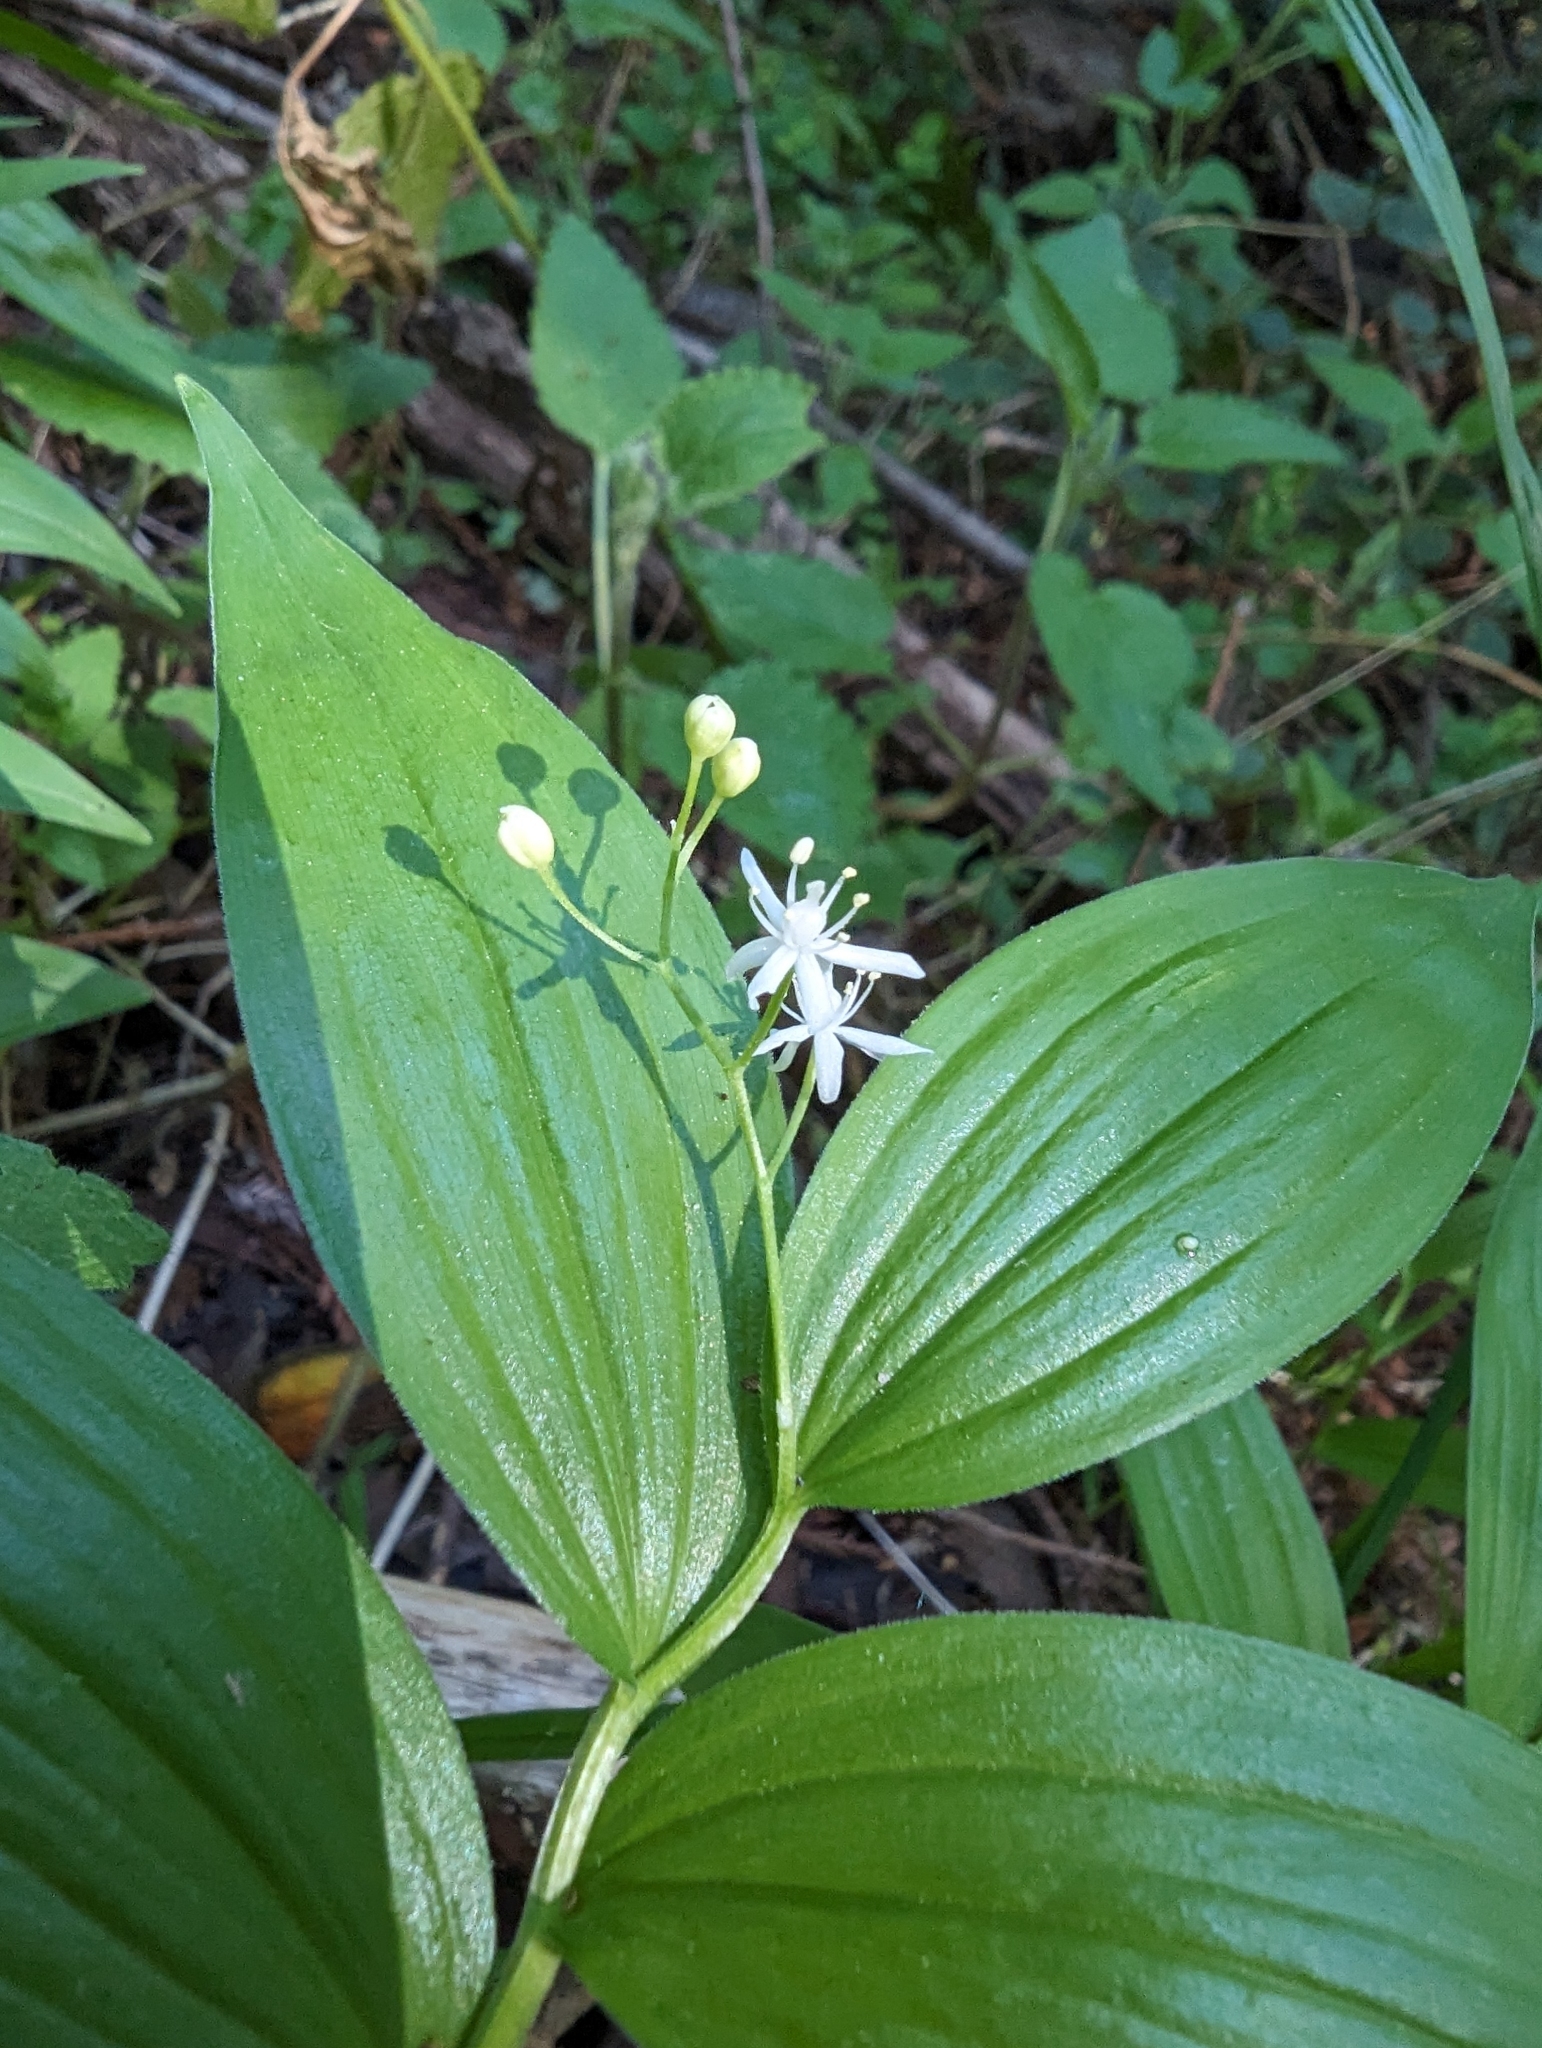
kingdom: Plantae
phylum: Tracheophyta
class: Liliopsida
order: Asparagales
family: Asparagaceae
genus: Maianthemum
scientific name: Maianthemum stellatum
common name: Little false solomon's seal
